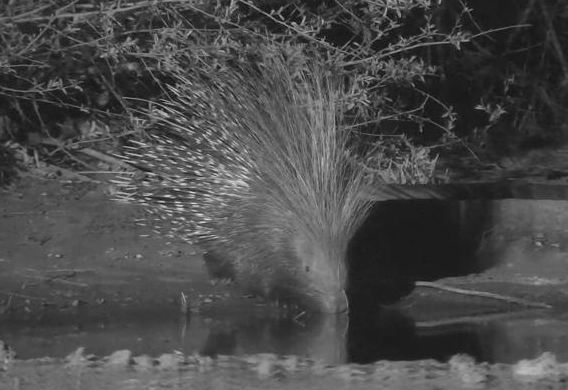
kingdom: Animalia
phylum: Chordata
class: Mammalia
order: Rodentia
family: Hystricidae
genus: Hystrix
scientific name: Hystrix africaeaustralis
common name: Cape porcupine
